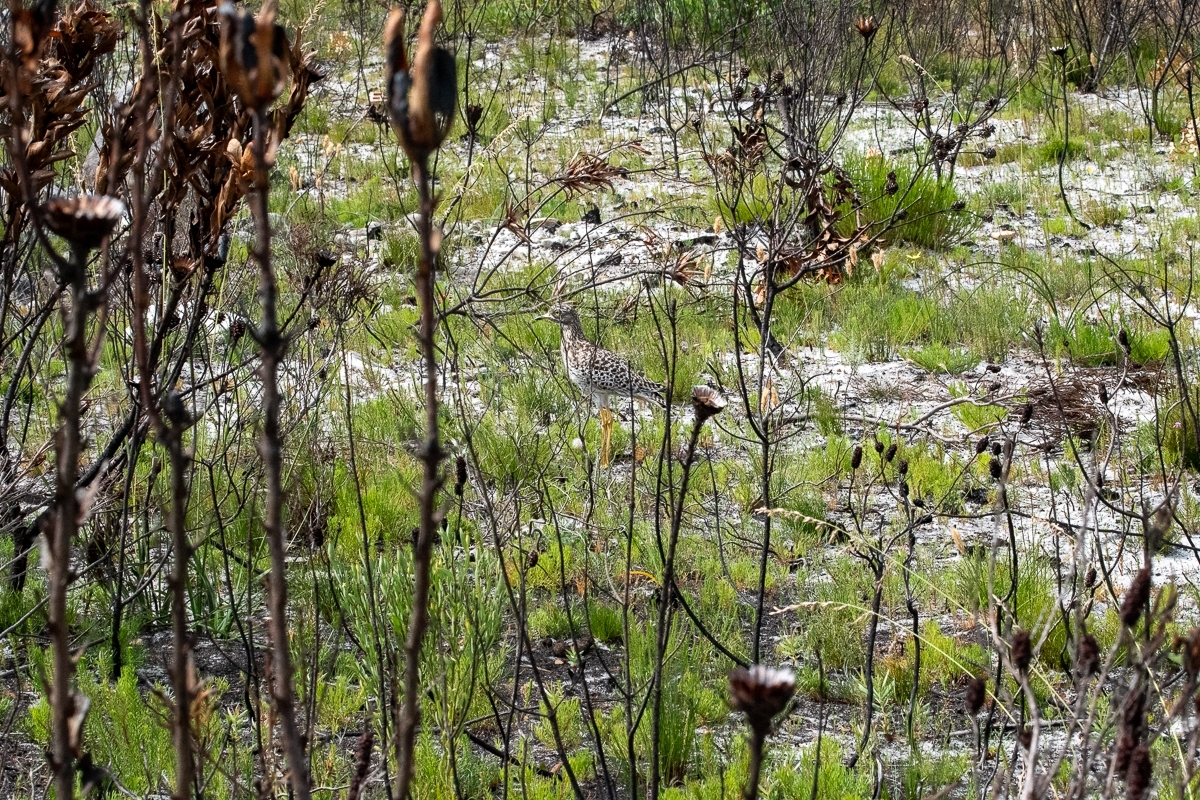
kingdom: Animalia
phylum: Chordata
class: Aves
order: Charadriiformes
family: Burhinidae
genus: Burhinus
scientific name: Burhinus capensis
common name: Spotted thick-knee
